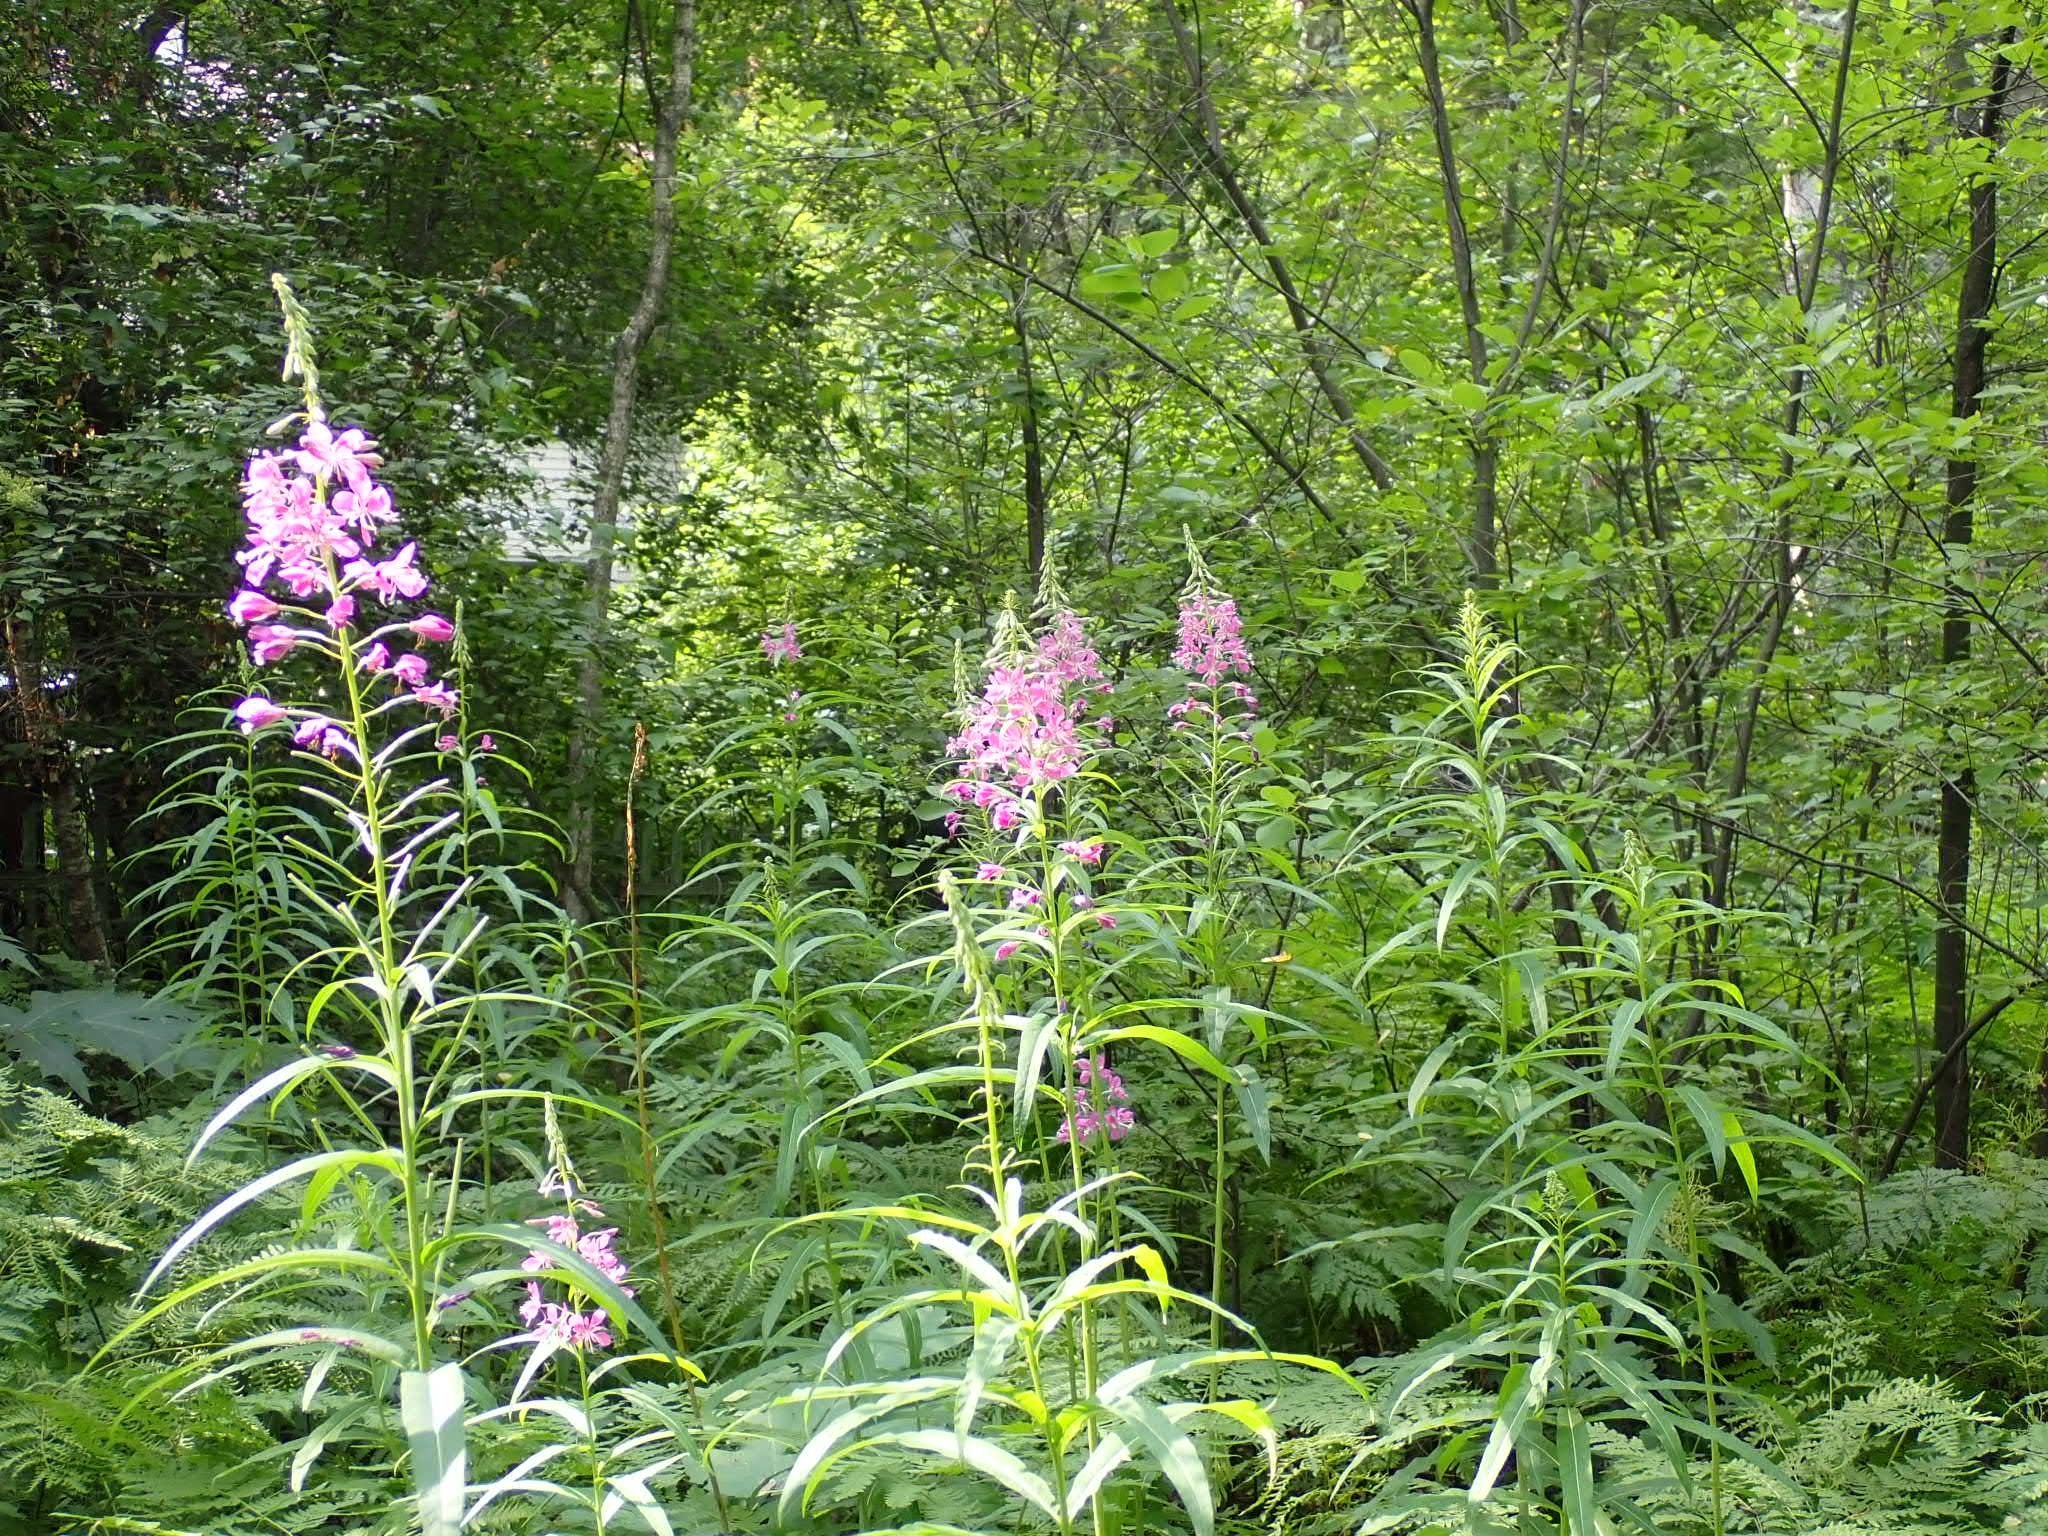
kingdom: Plantae
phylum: Tracheophyta
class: Magnoliopsida
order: Myrtales
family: Onagraceae
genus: Chamaenerion
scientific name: Chamaenerion angustifolium
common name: Fireweed
